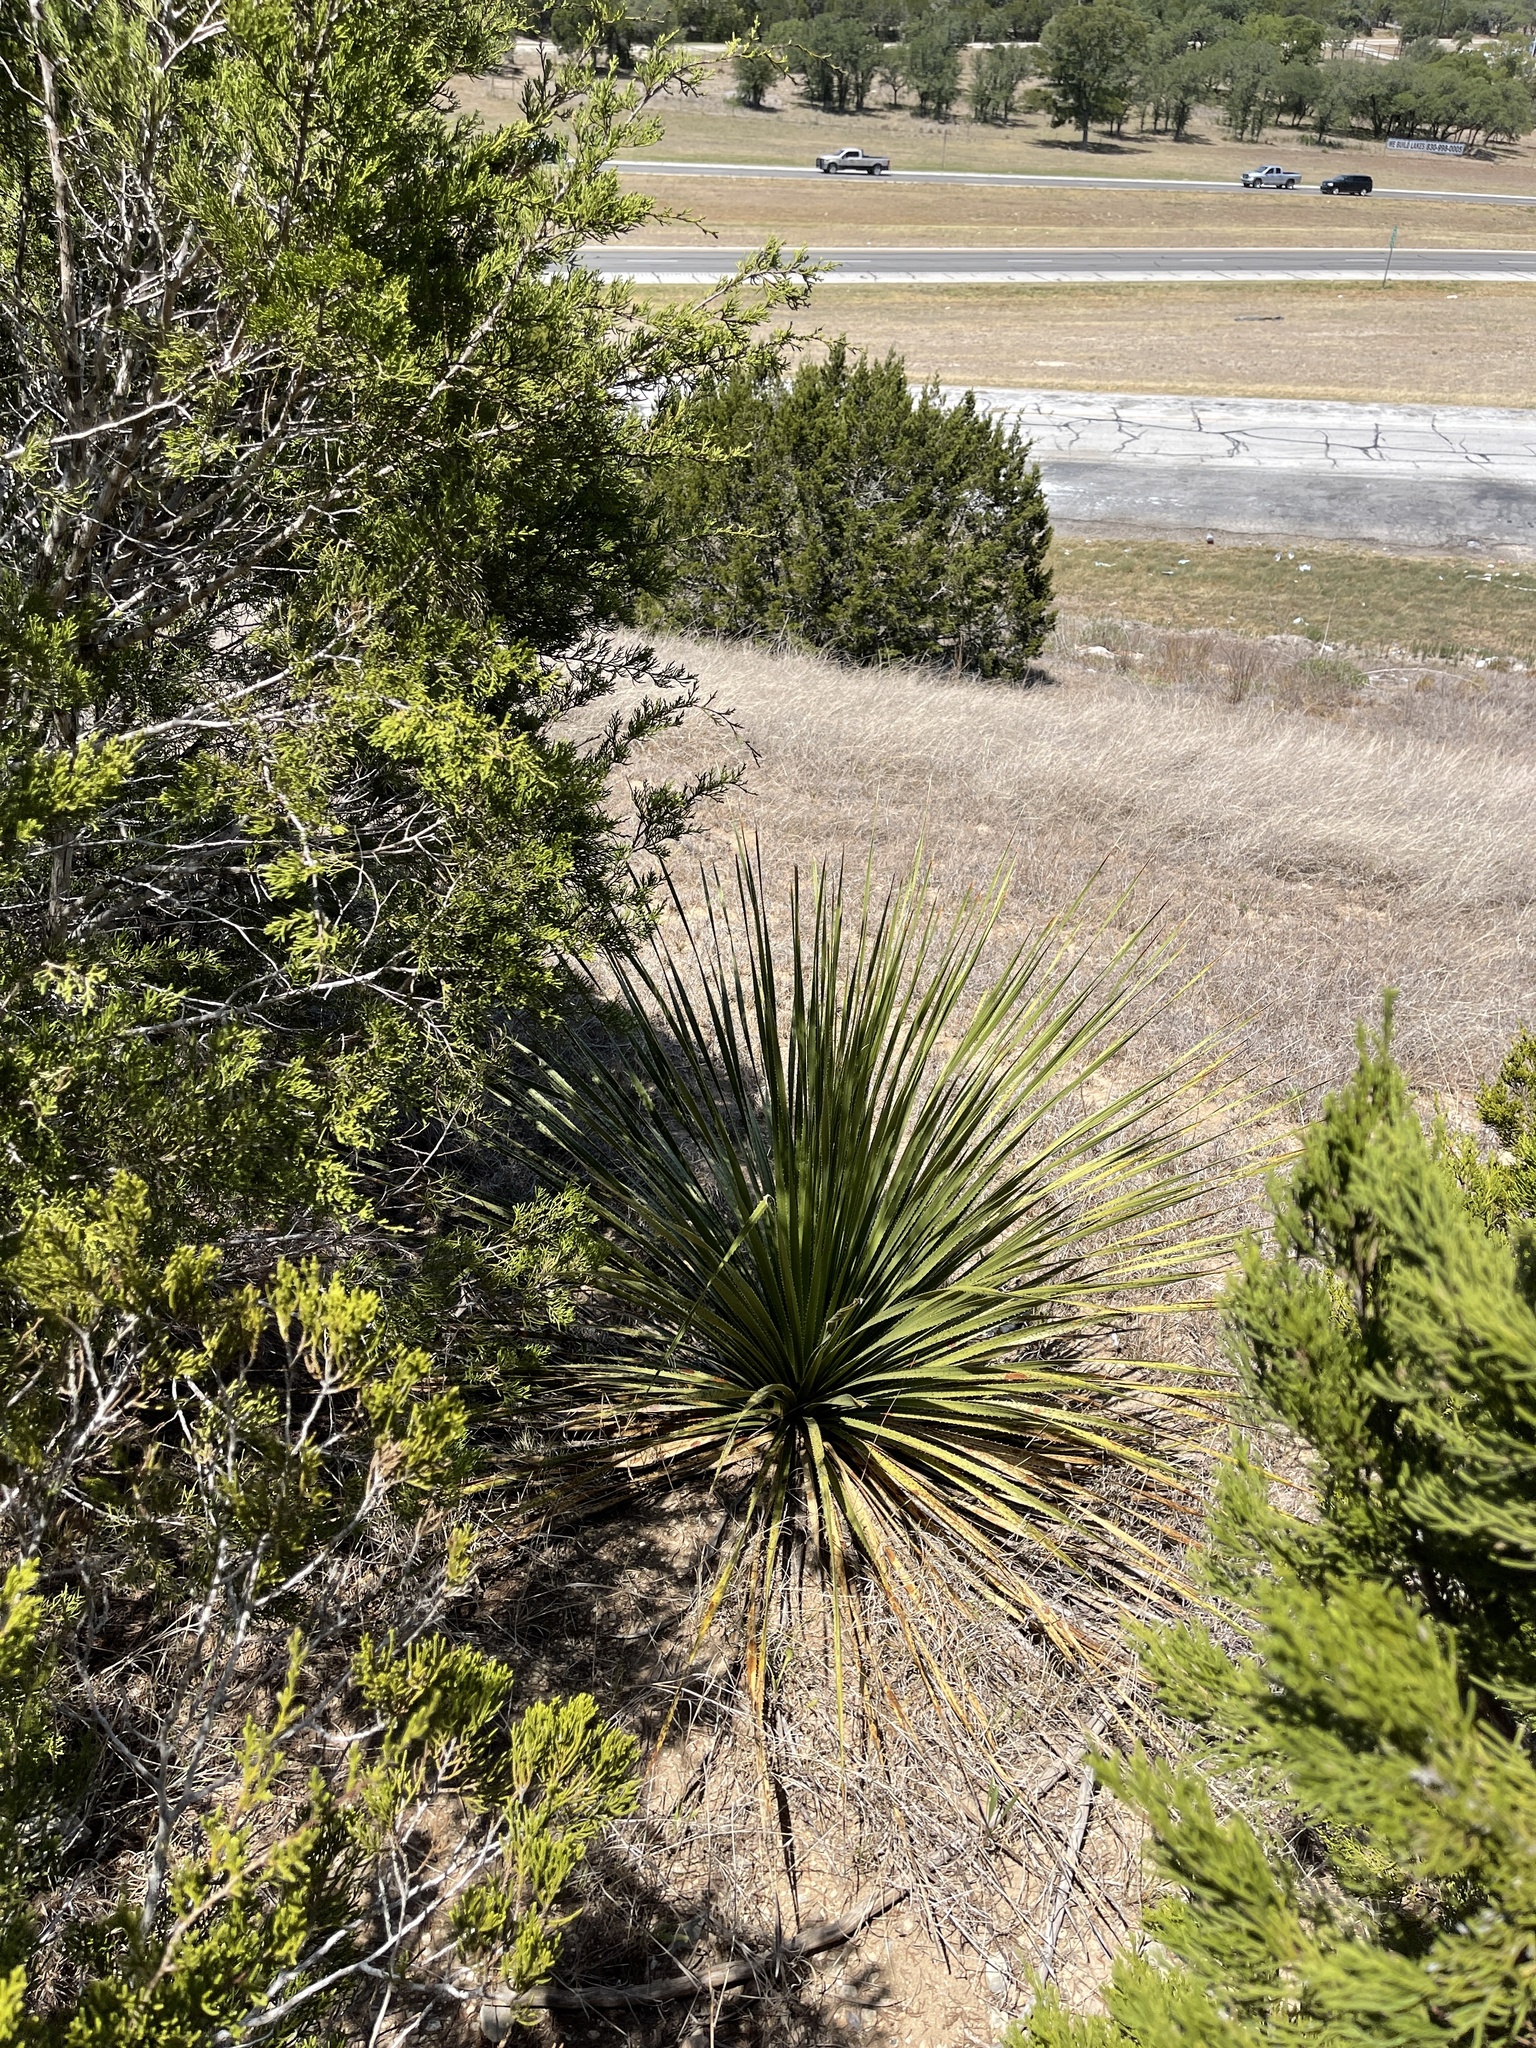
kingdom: Plantae
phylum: Tracheophyta
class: Liliopsida
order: Asparagales
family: Asparagaceae
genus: Dasylirion
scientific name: Dasylirion texanum
